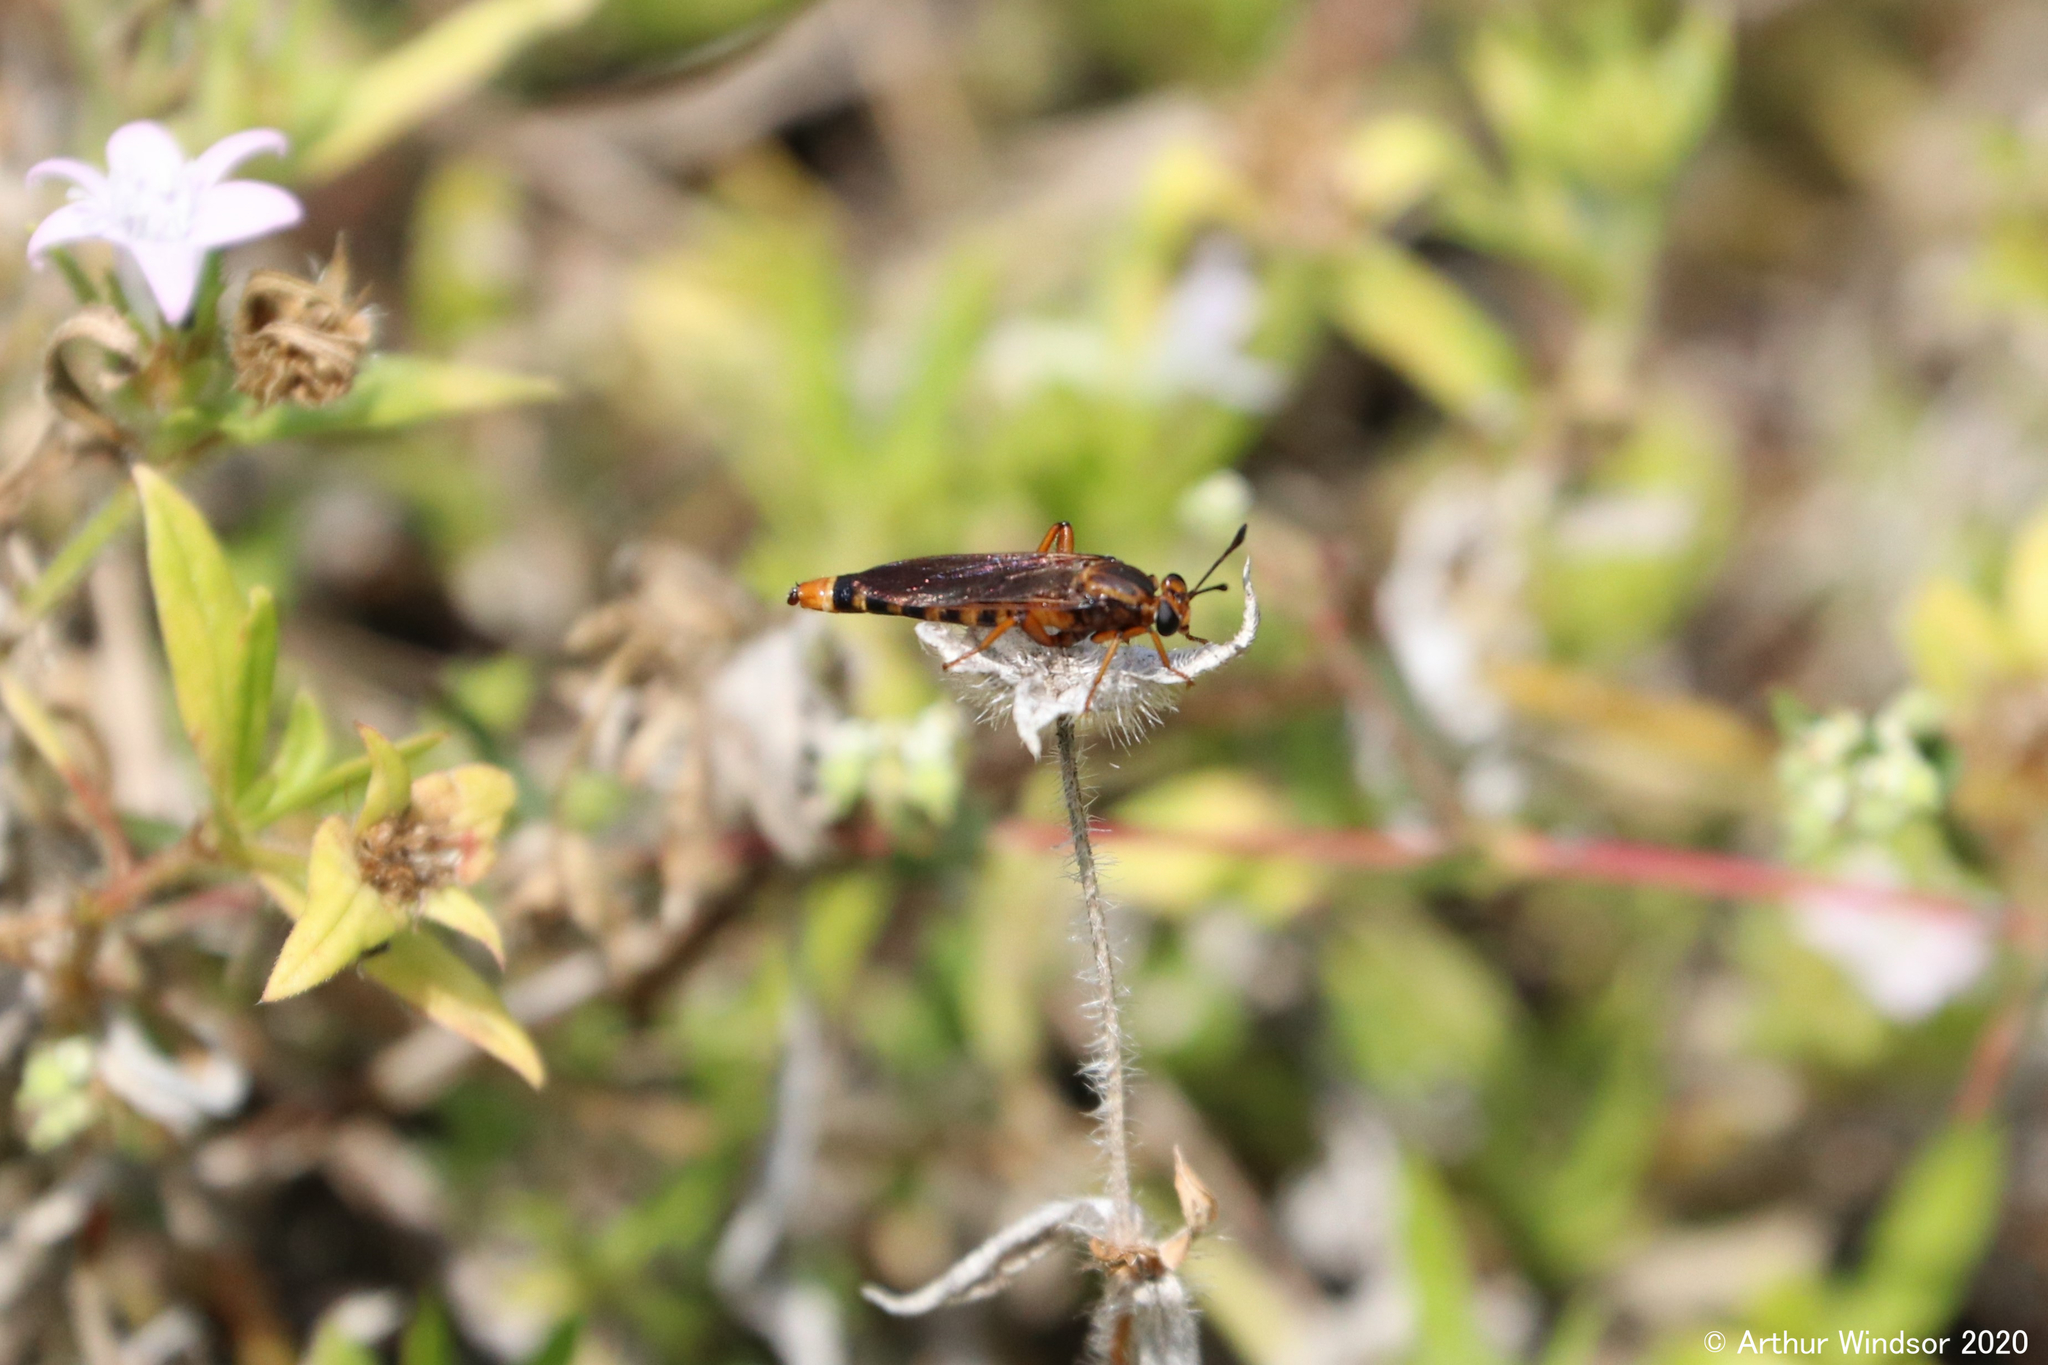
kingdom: Animalia
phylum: Arthropoda
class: Insecta
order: Diptera
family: Mydidae
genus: Phyllomydas
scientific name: Phyllomydas parvulus
